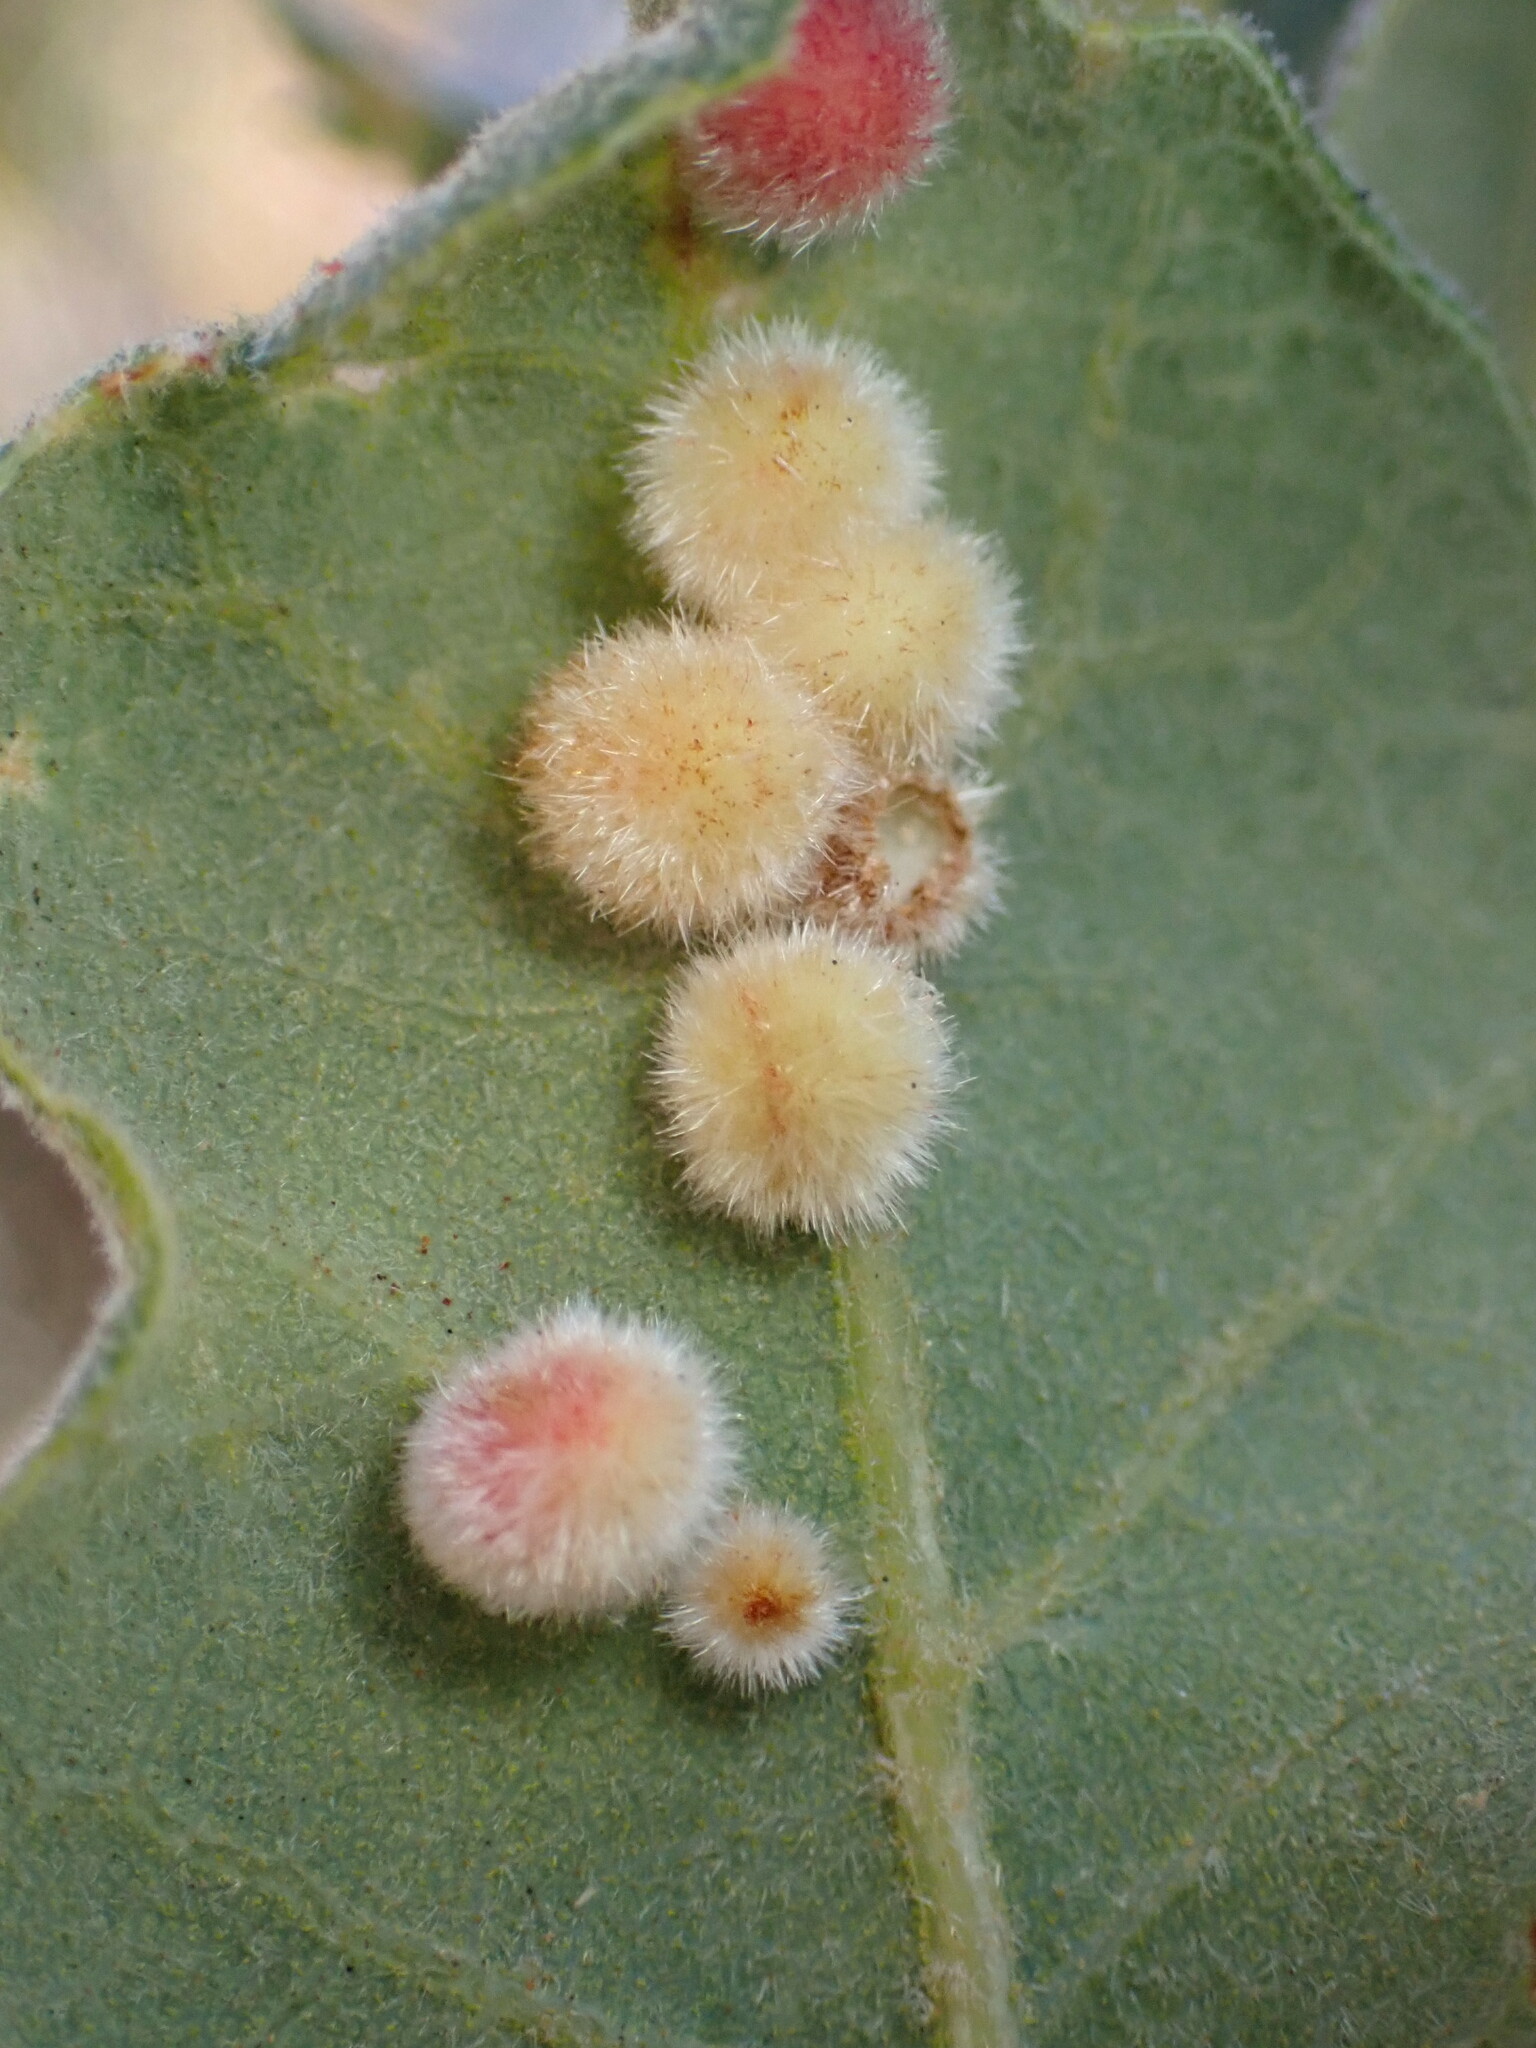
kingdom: Animalia
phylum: Arthropoda
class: Insecta
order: Hymenoptera
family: Cynipidae
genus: Atrusca
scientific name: Atrusca
